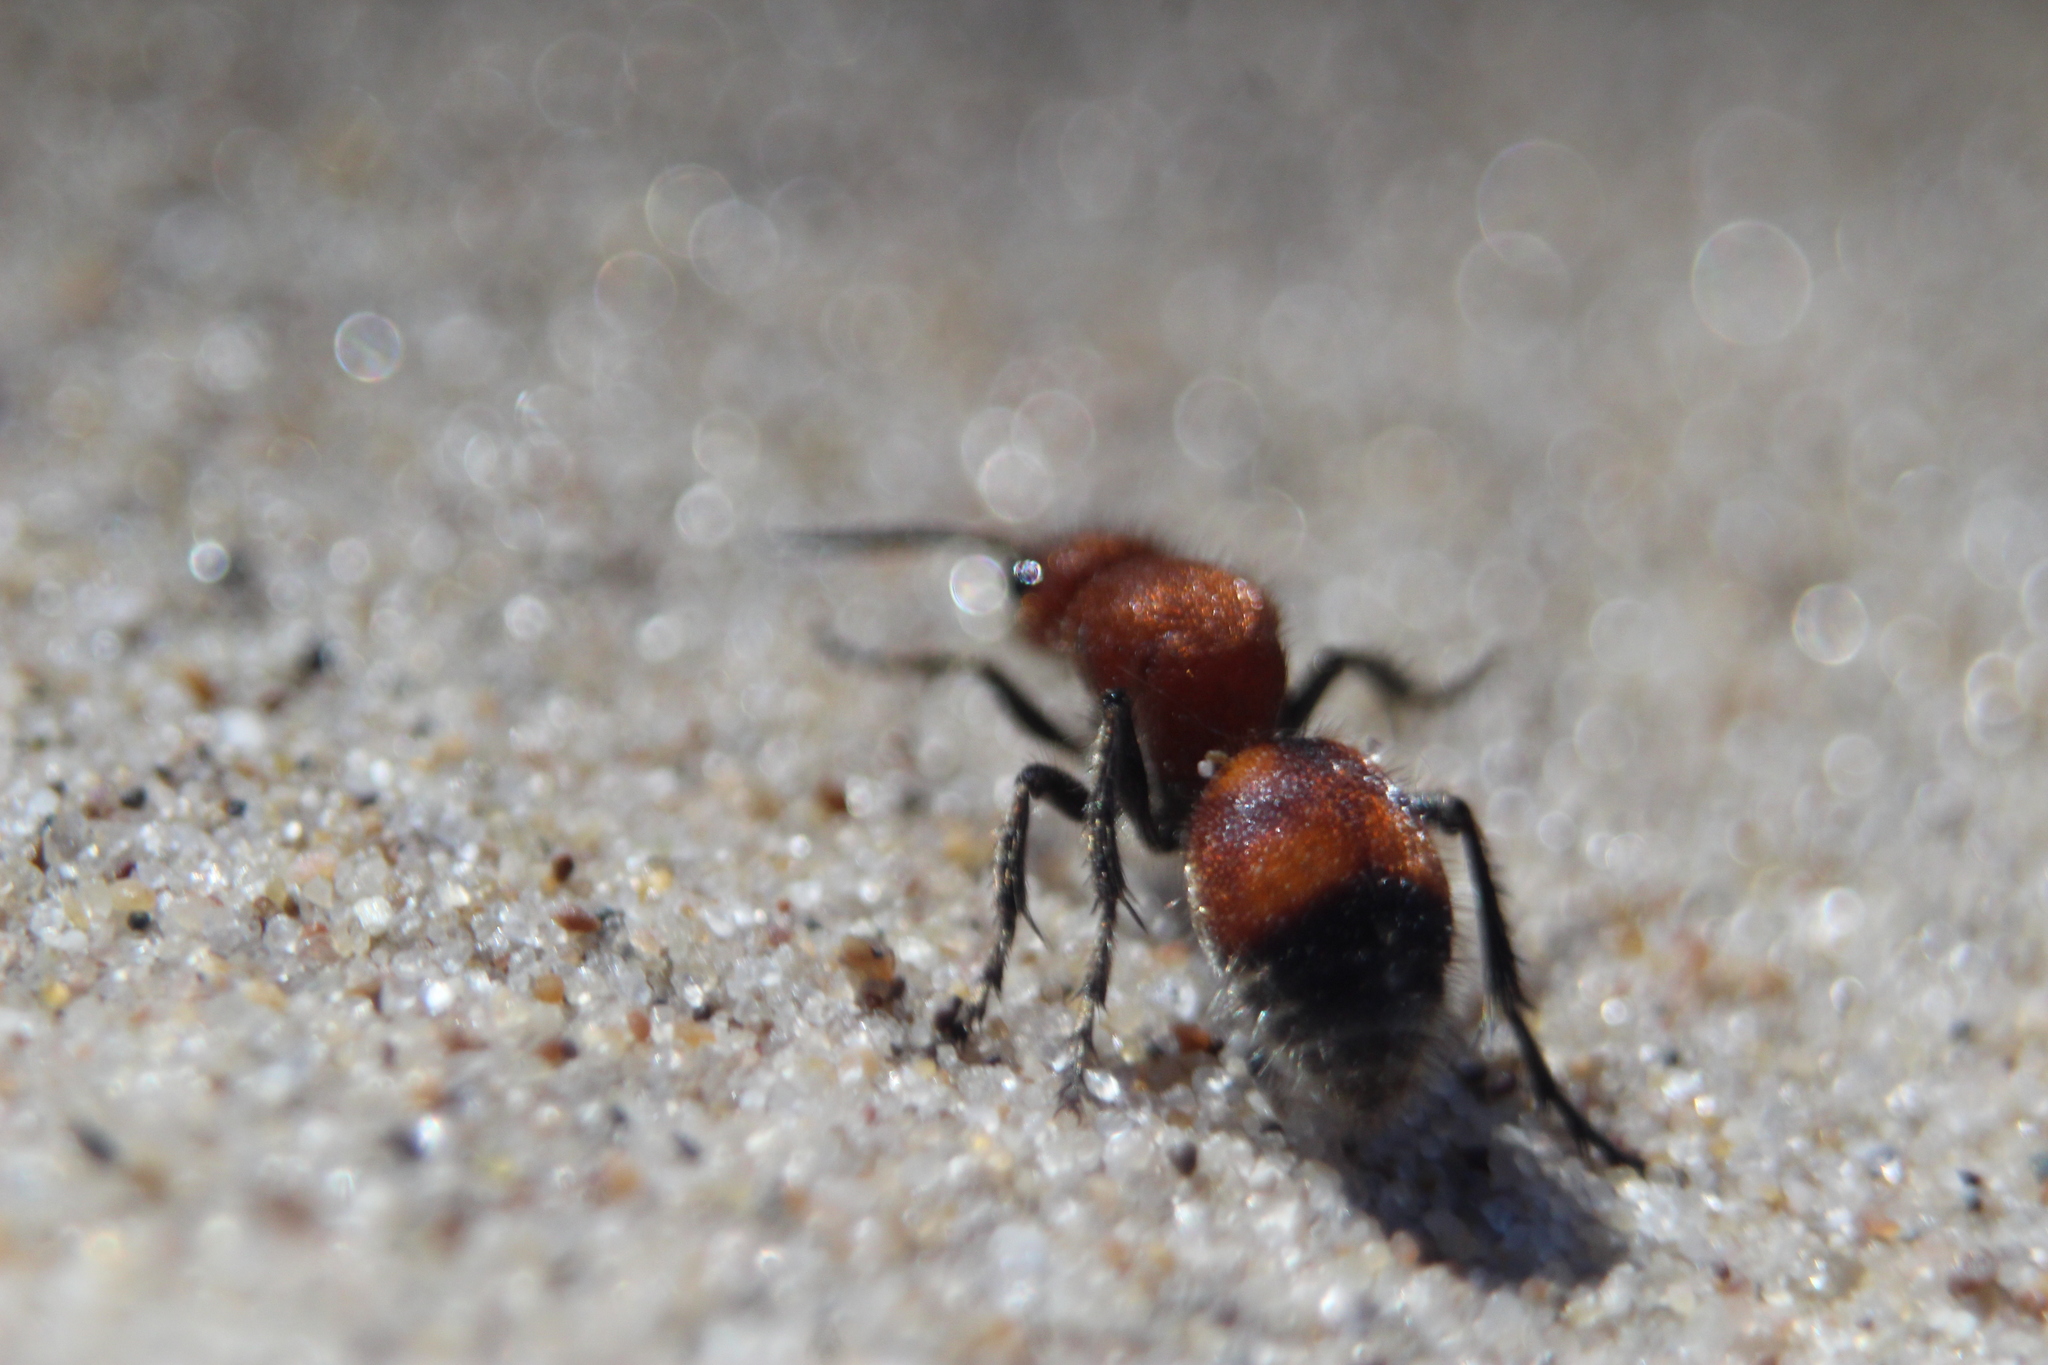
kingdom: Animalia
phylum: Arthropoda
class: Insecta
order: Hymenoptera
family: Mutillidae
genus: Dasymutilla
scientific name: Dasymutilla
